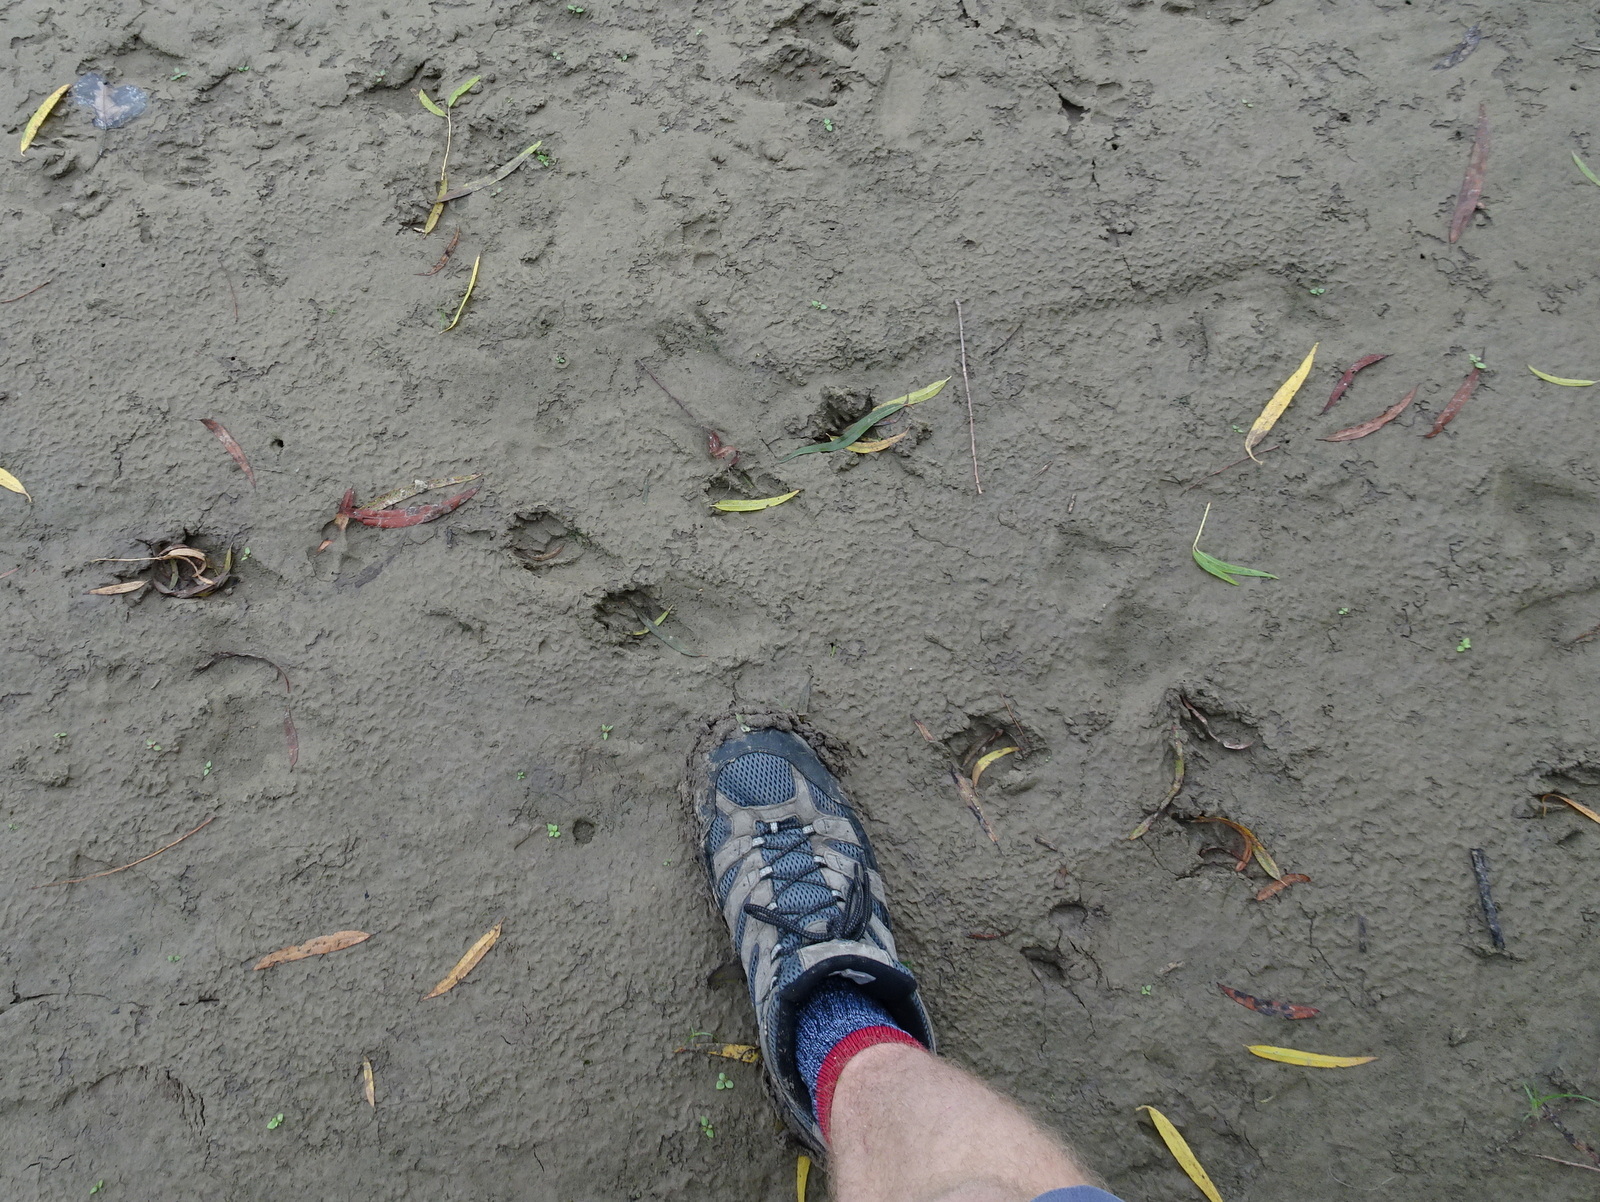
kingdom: Animalia
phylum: Chordata
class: Mammalia
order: Carnivora
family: Procyonidae
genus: Procyon
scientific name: Procyon lotor
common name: Raccoon
